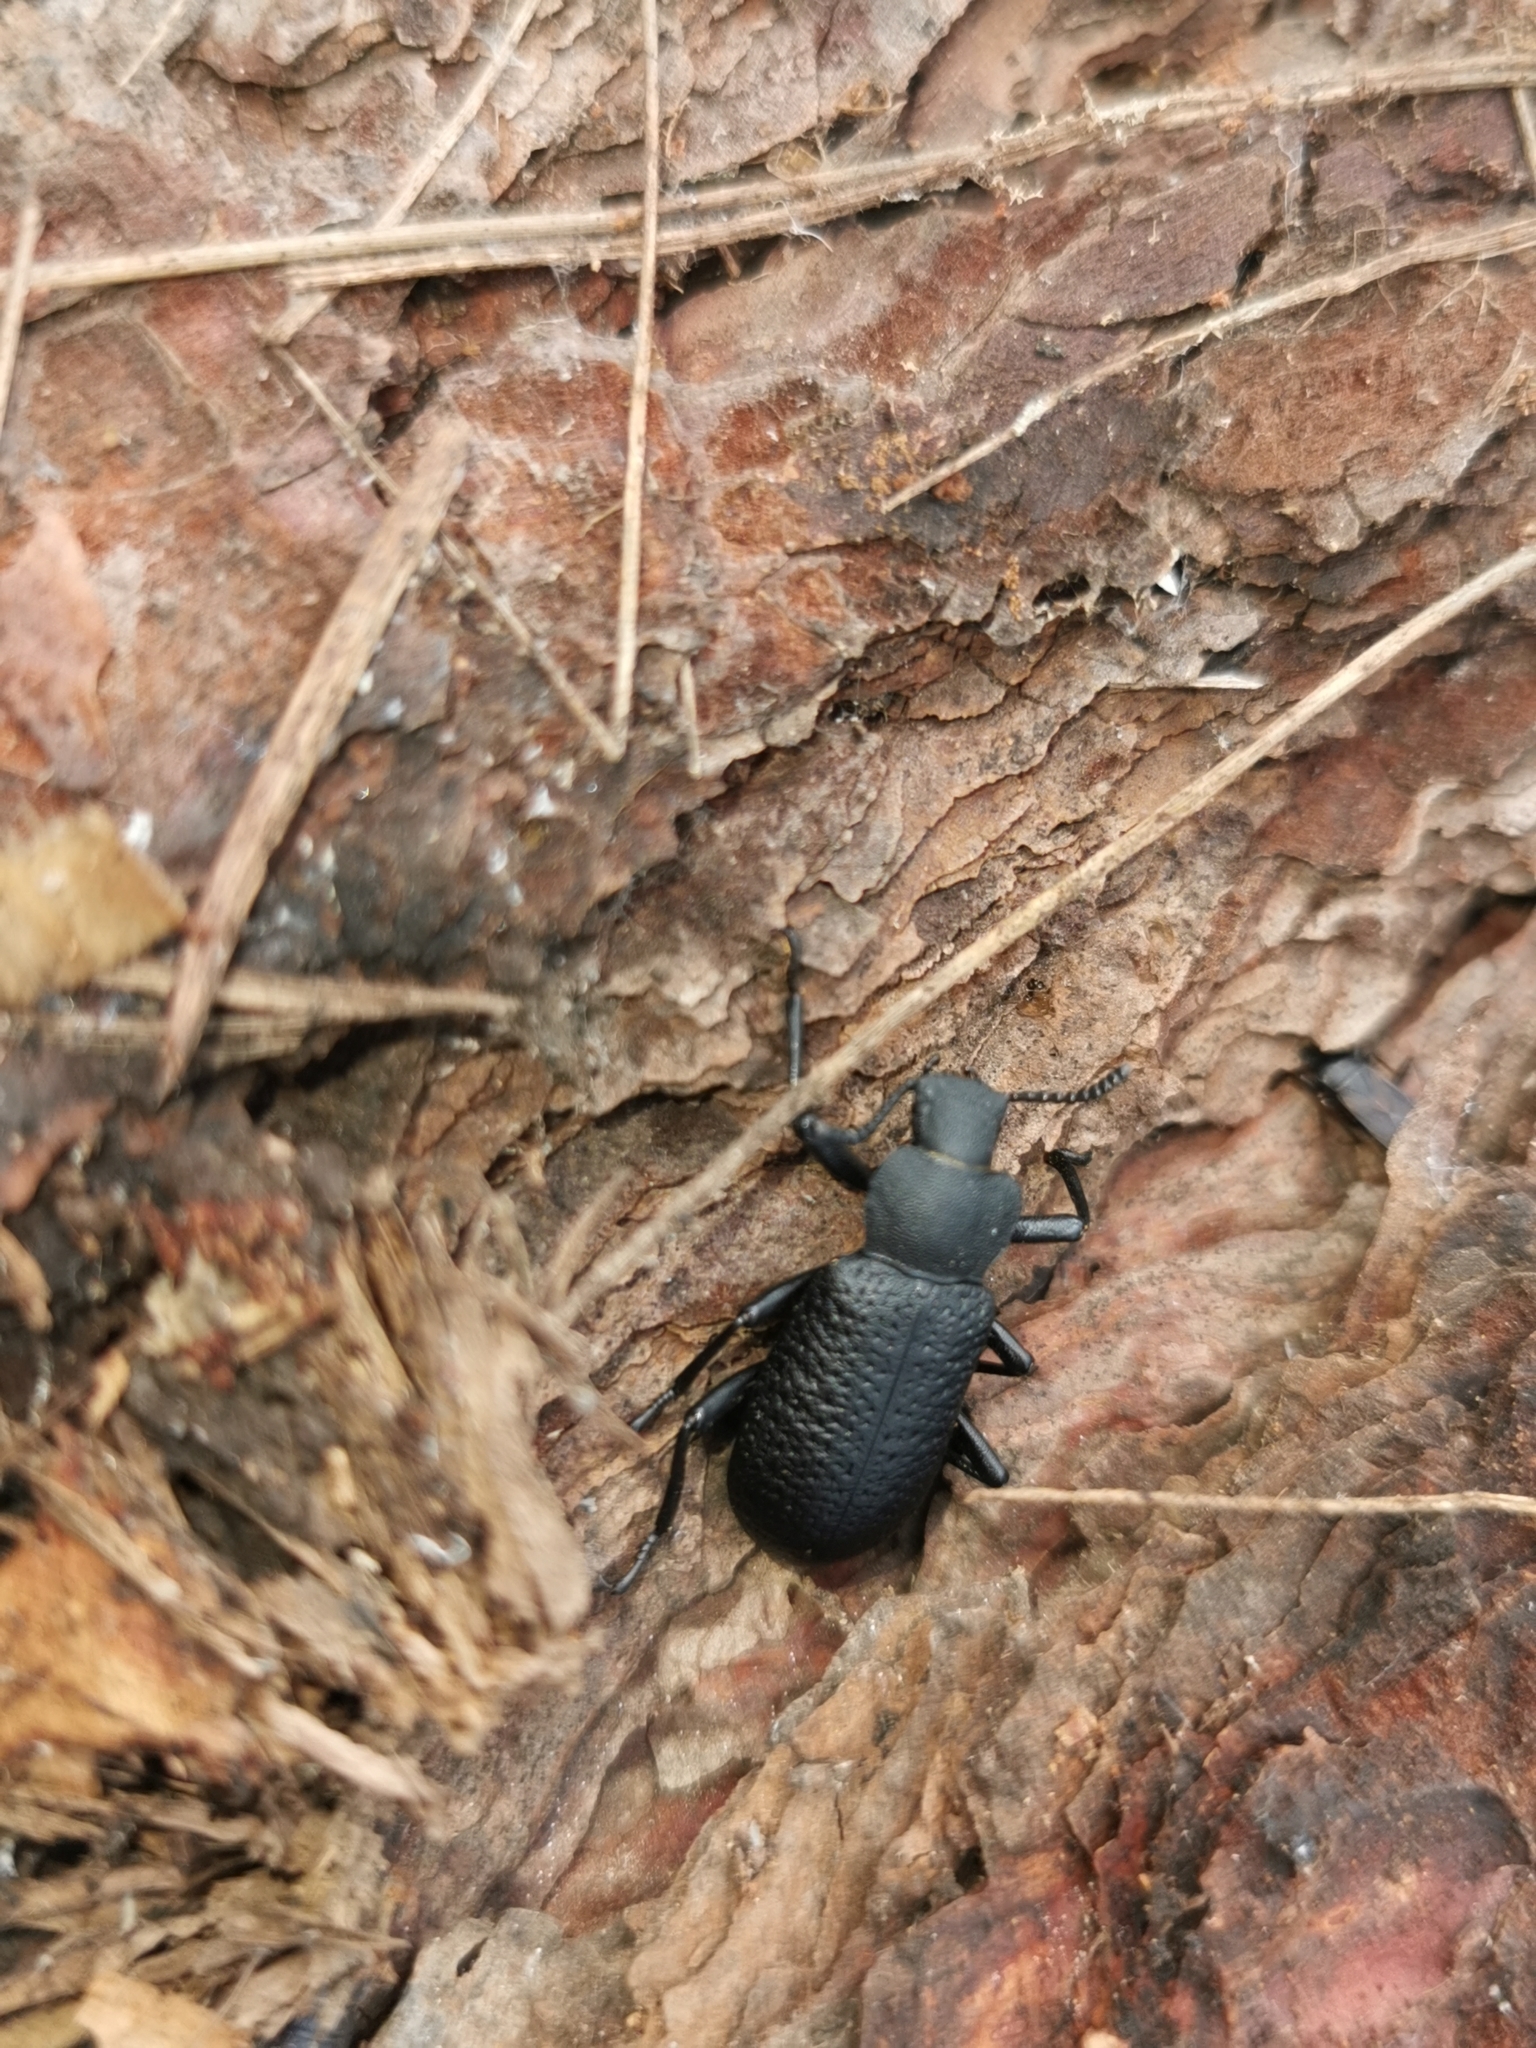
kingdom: Animalia
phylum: Arthropoda
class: Insecta
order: Coleoptera
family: Tenebrionidae
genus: Iphthiminus
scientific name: Iphthiminus serratus
